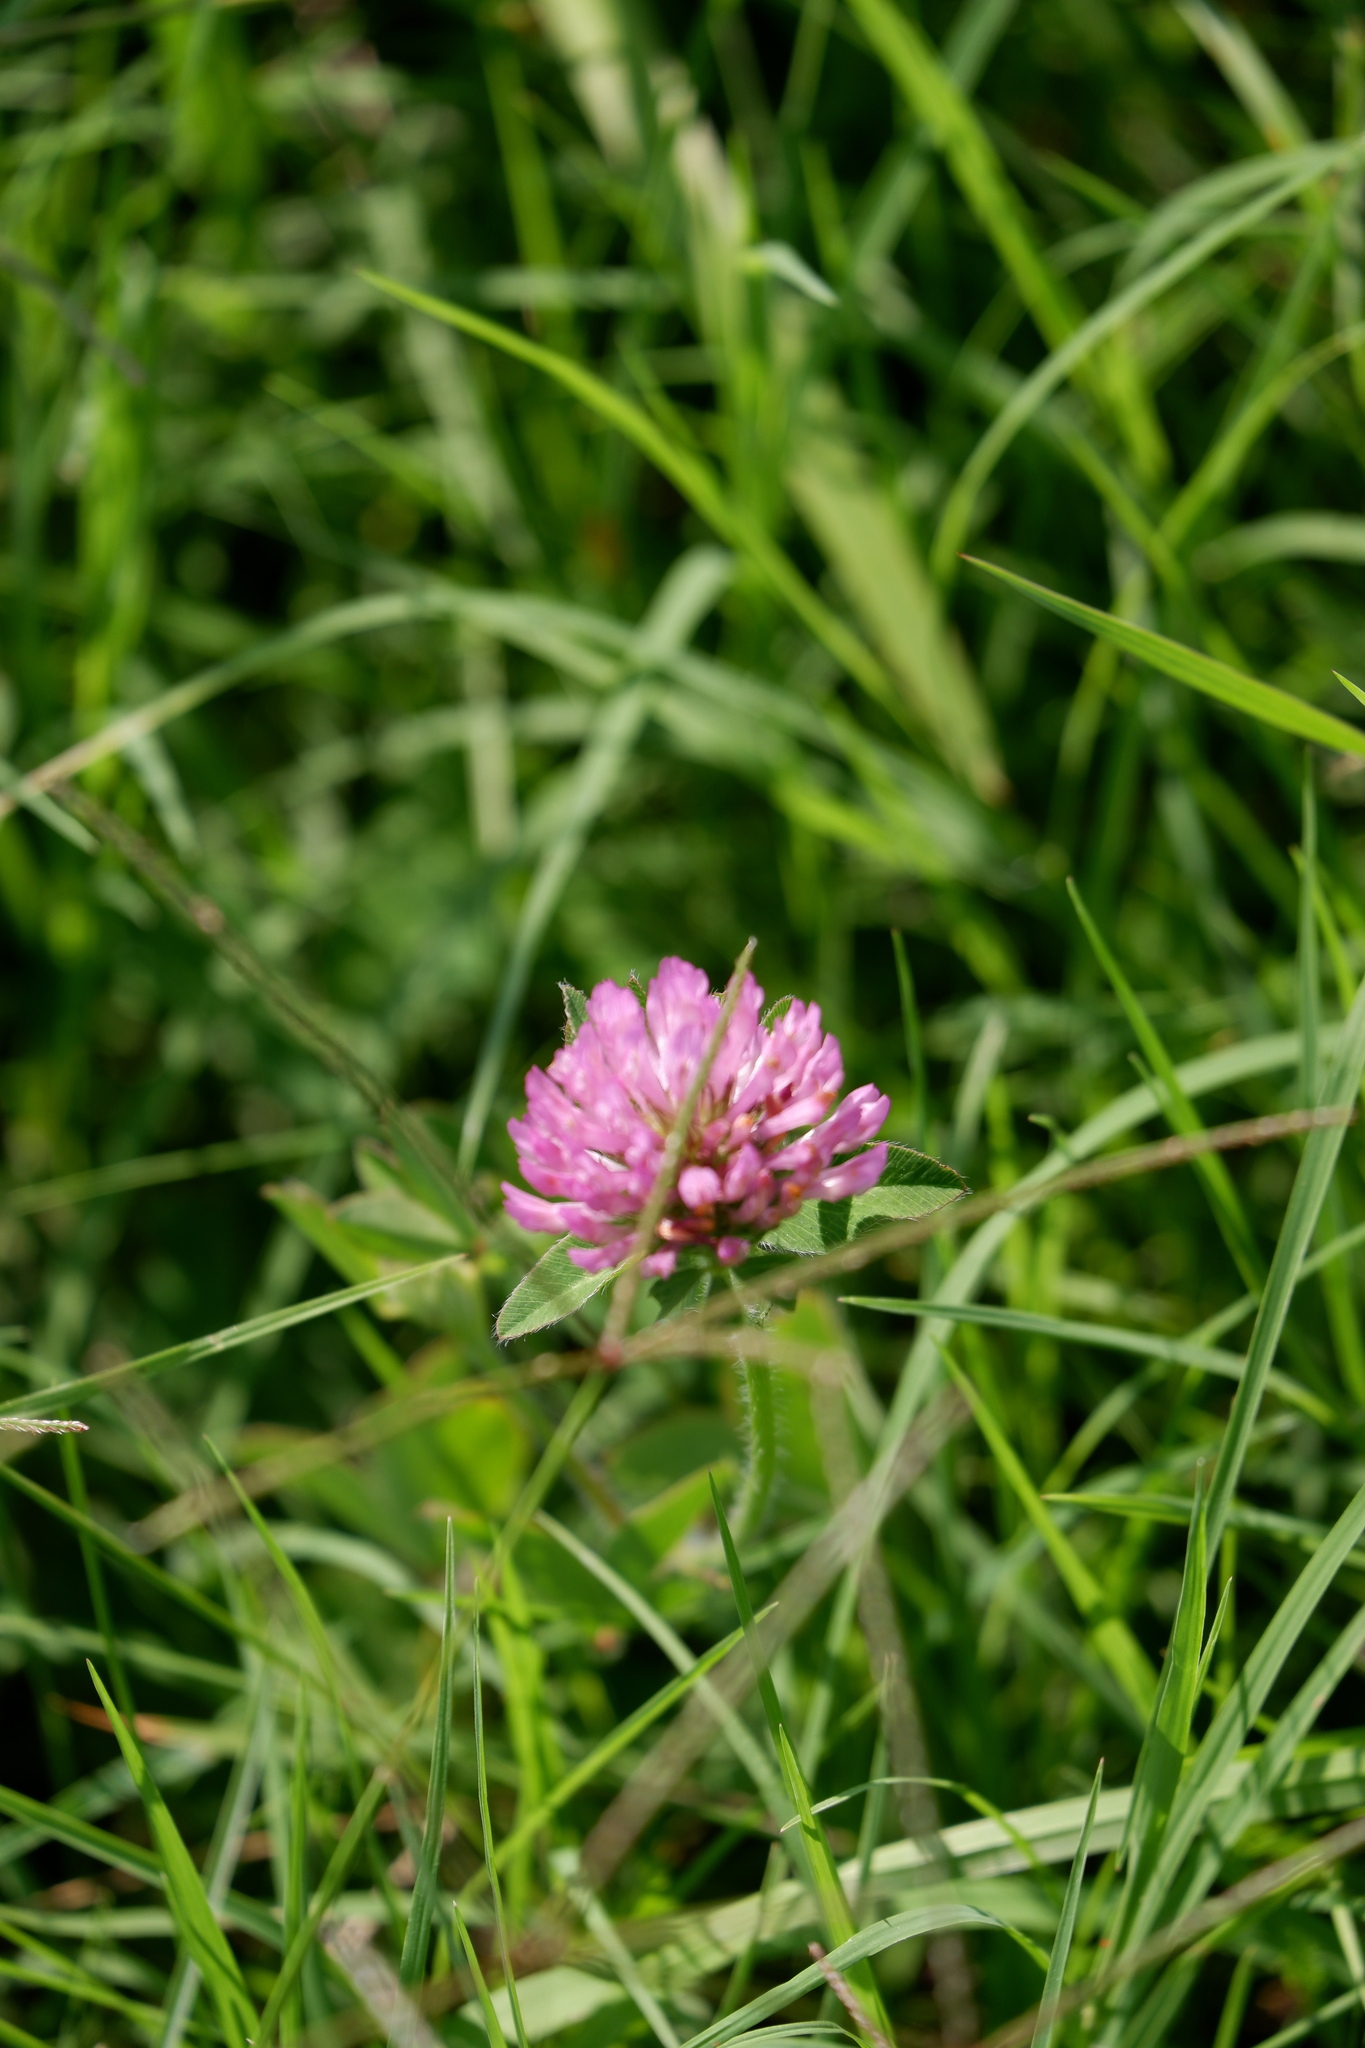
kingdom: Plantae
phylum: Tracheophyta
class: Magnoliopsida
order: Fabales
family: Fabaceae
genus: Trifolium
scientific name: Trifolium pratense
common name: Red clover
